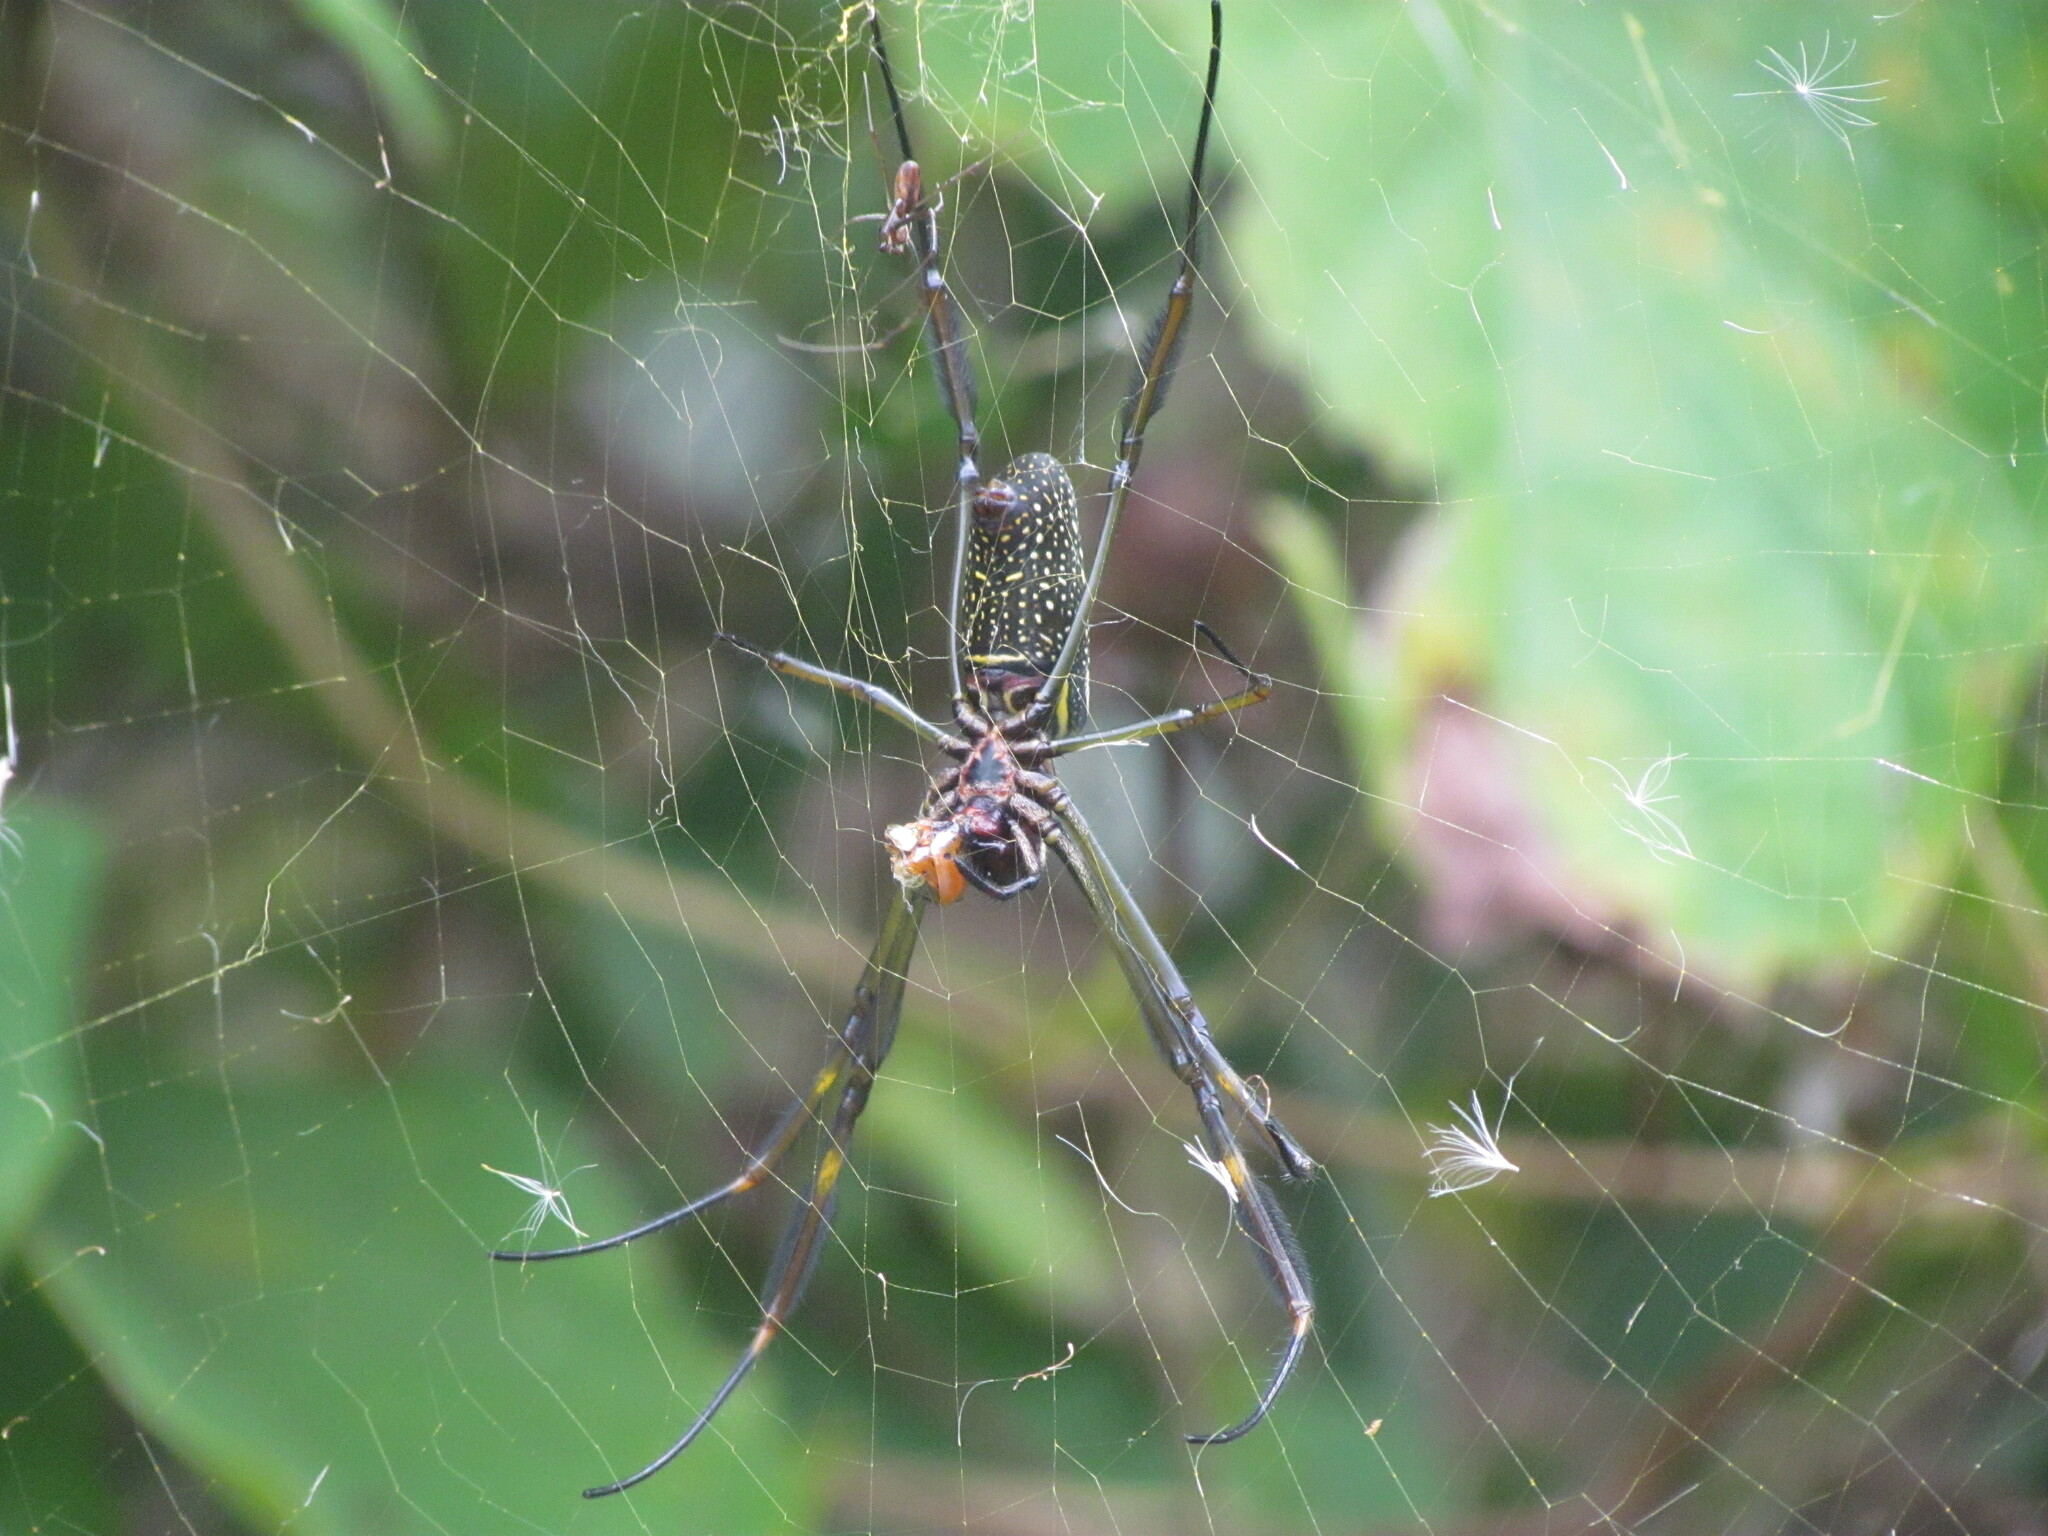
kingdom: Animalia
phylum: Arthropoda
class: Arachnida
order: Araneae
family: Araneidae
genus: Trichonephila
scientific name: Trichonephila clavipes
